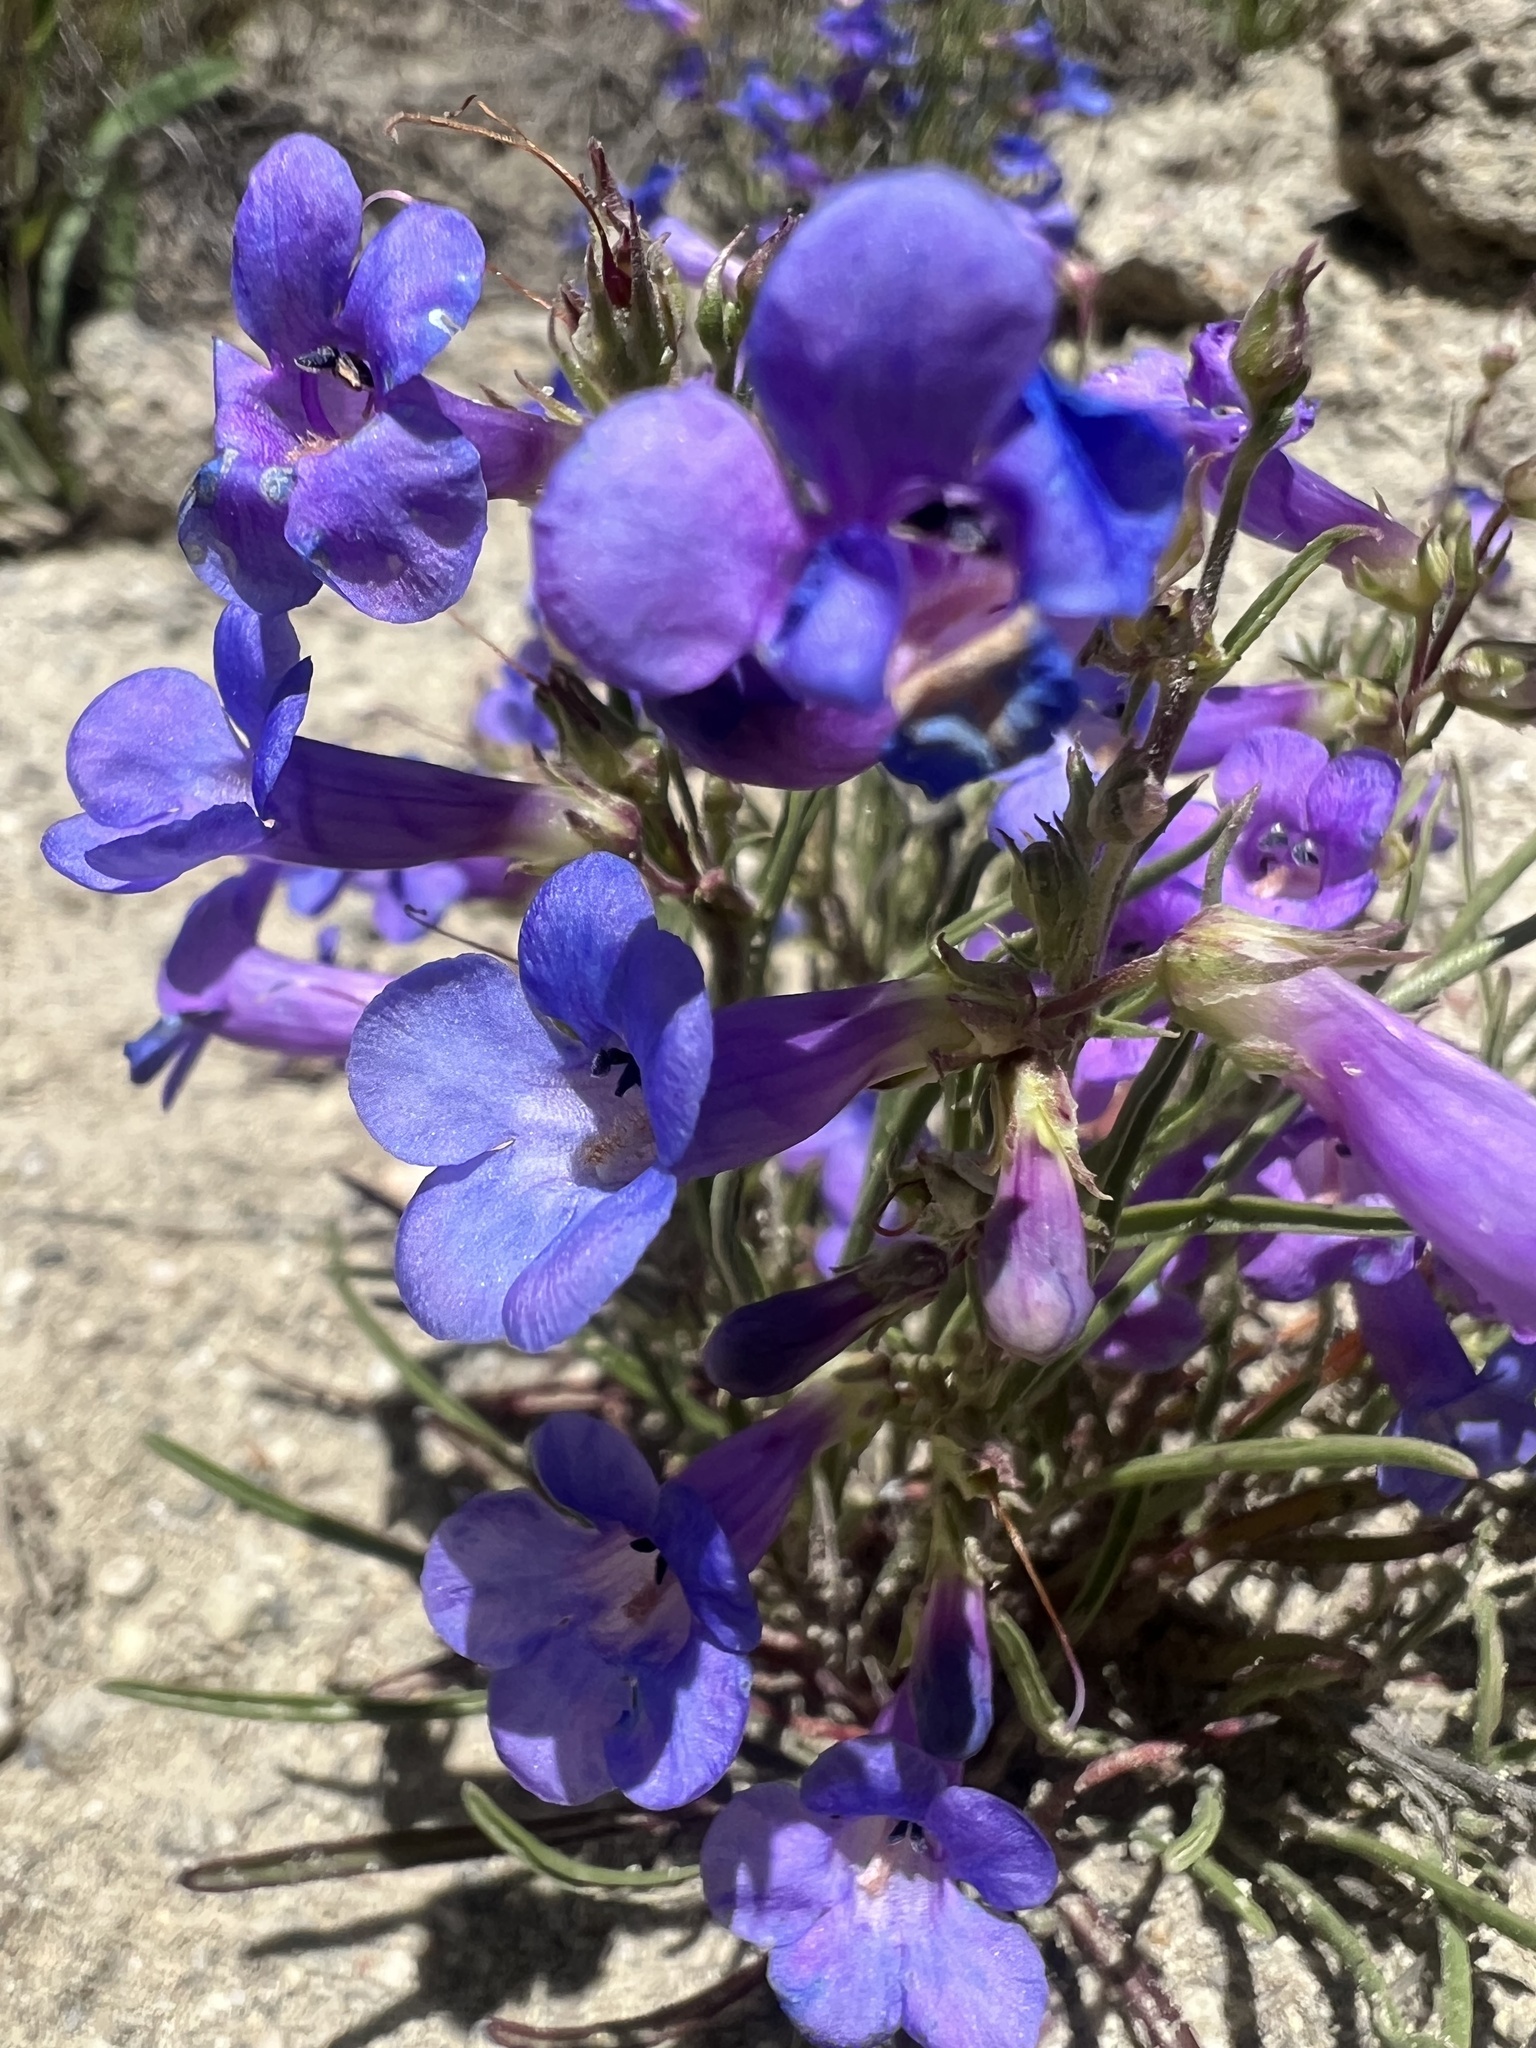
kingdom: Plantae
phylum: Tracheophyta
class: Magnoliopsida
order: Lamiales
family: Plantaginaceae
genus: Penstemon
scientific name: Penstemon penlandii
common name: Penland's beardtongue
